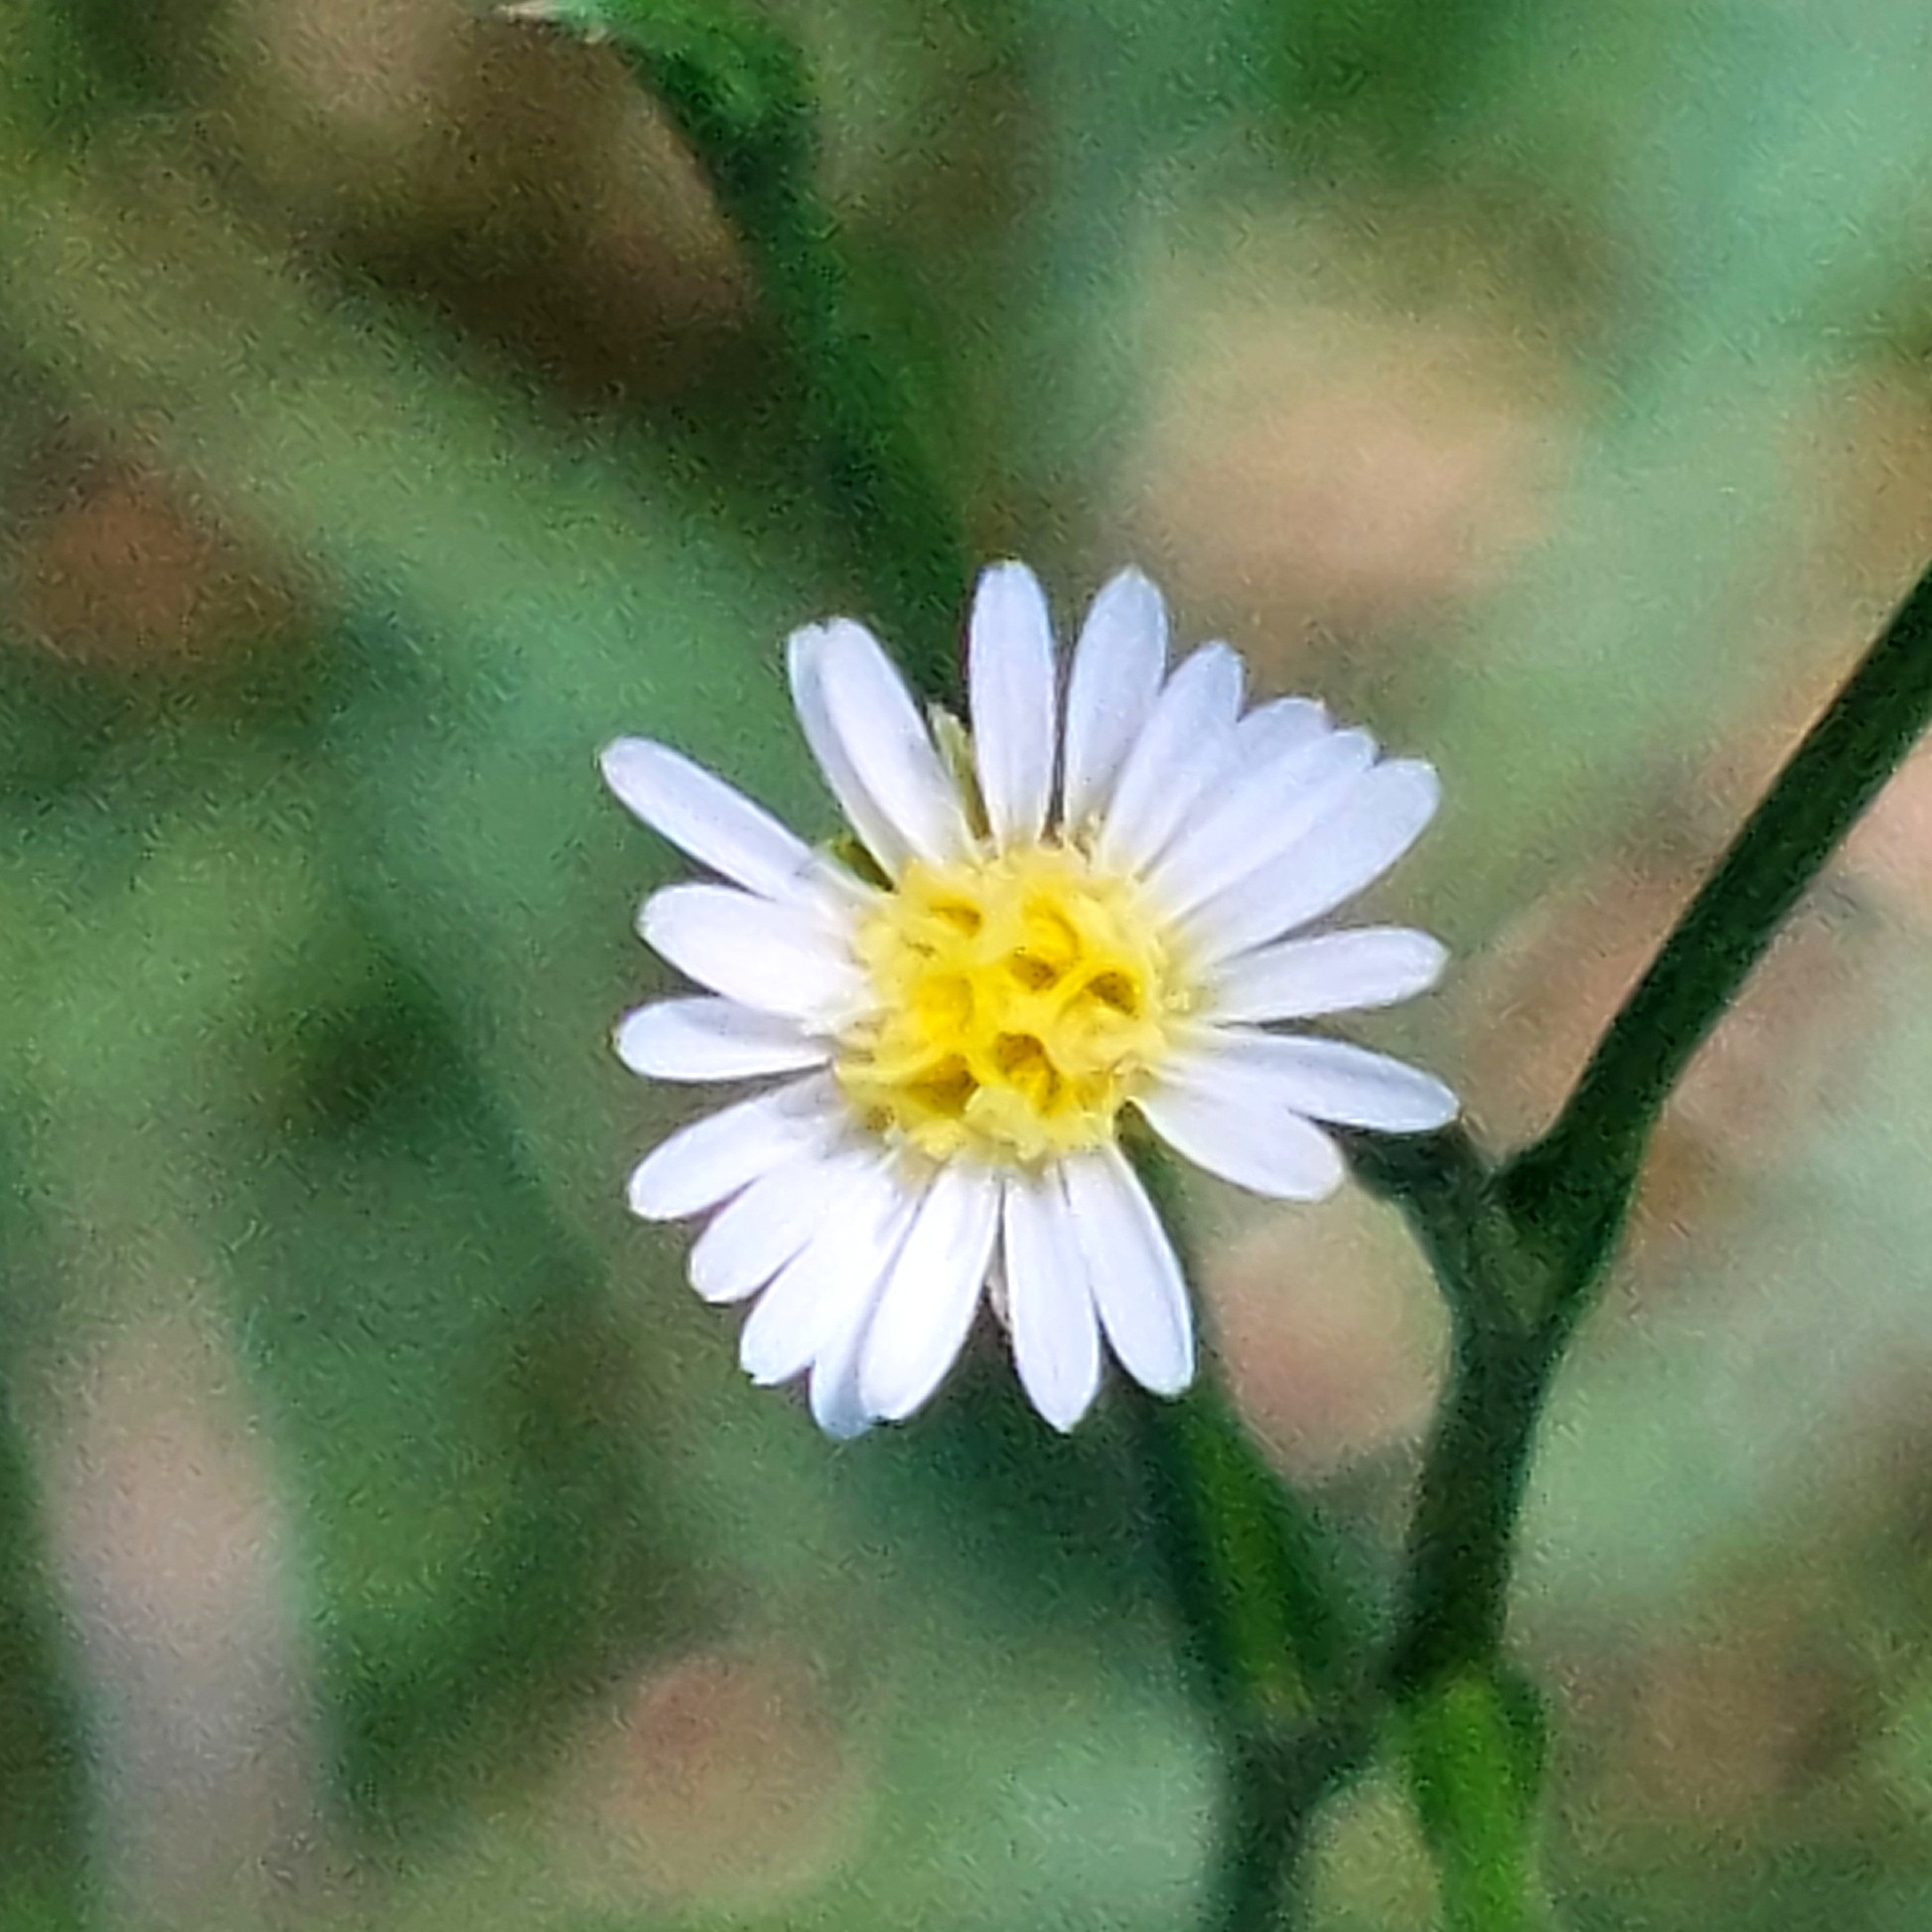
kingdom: Plantae
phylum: Tracheophyta
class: Magnoliopsida
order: Asterales
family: Asteraceae
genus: Symphyotrichum
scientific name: Symphyotrichum squamatum
